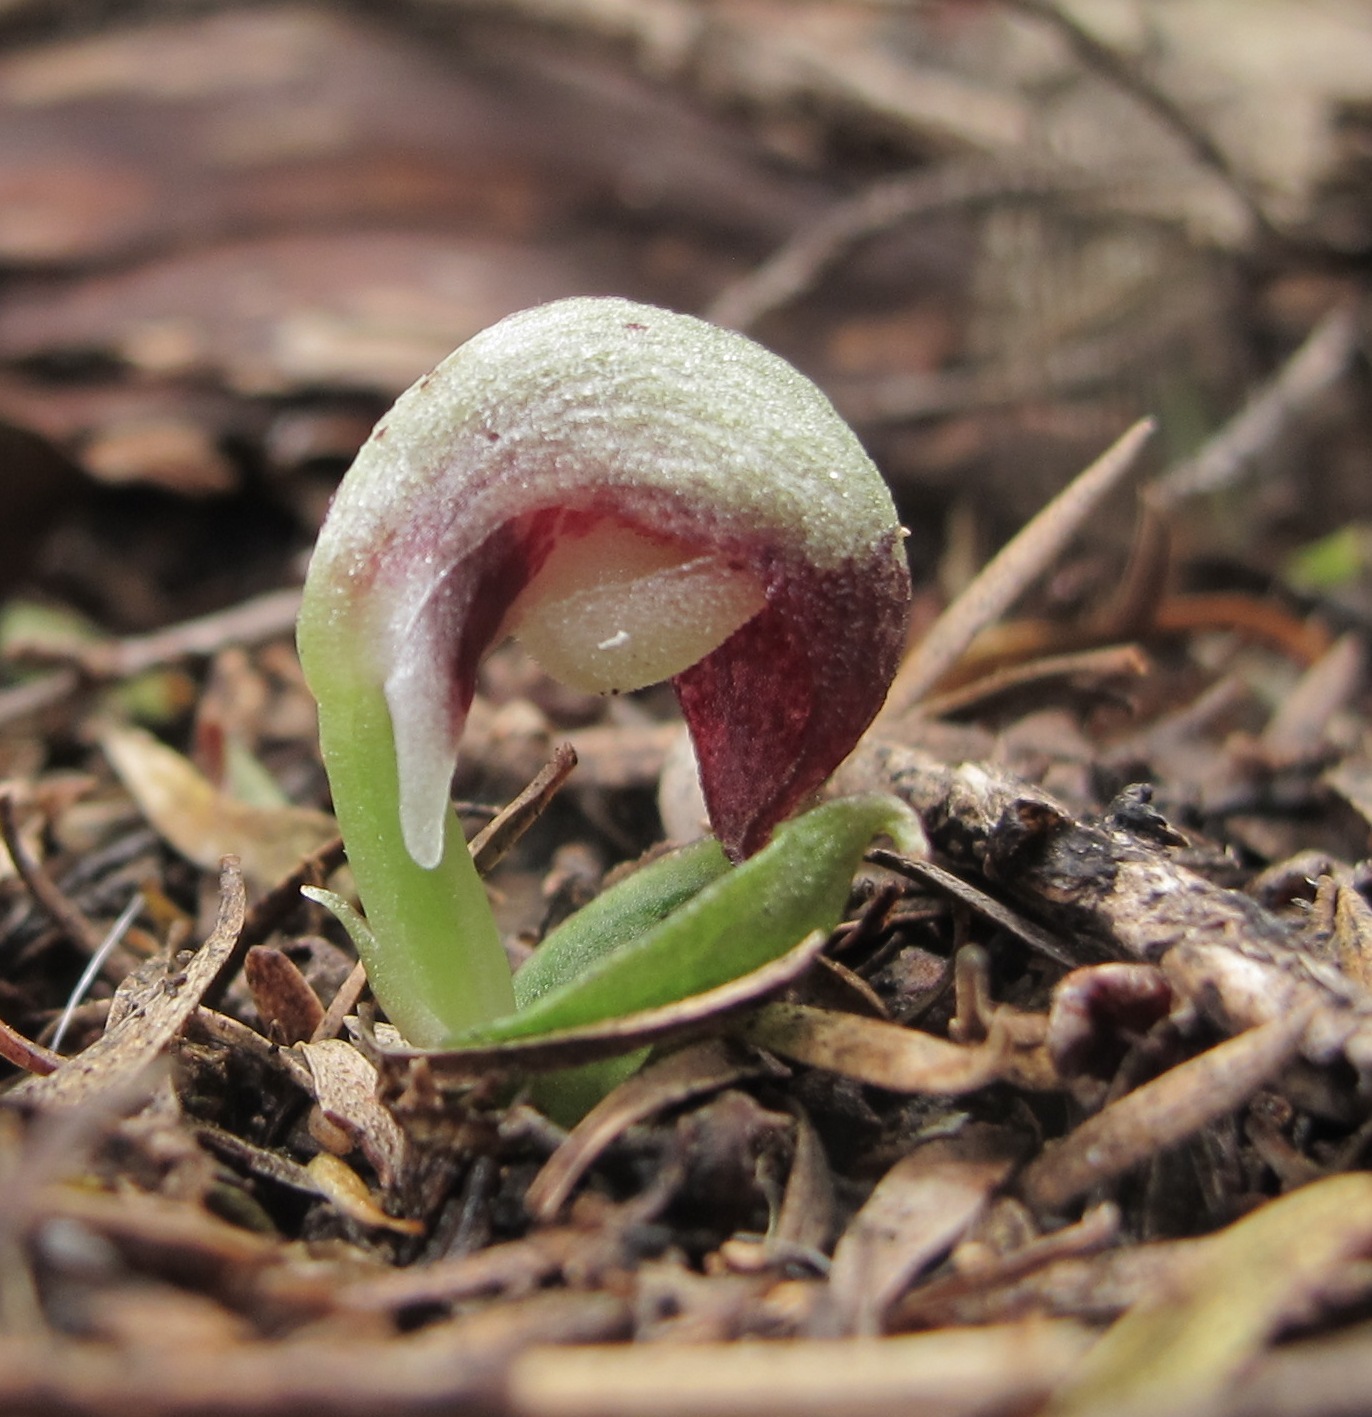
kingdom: Plantae
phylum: Tracheophyta
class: Liliopsida
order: Asparagales
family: Orchidaceae
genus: Corybas
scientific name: Corybas cheesemanii
